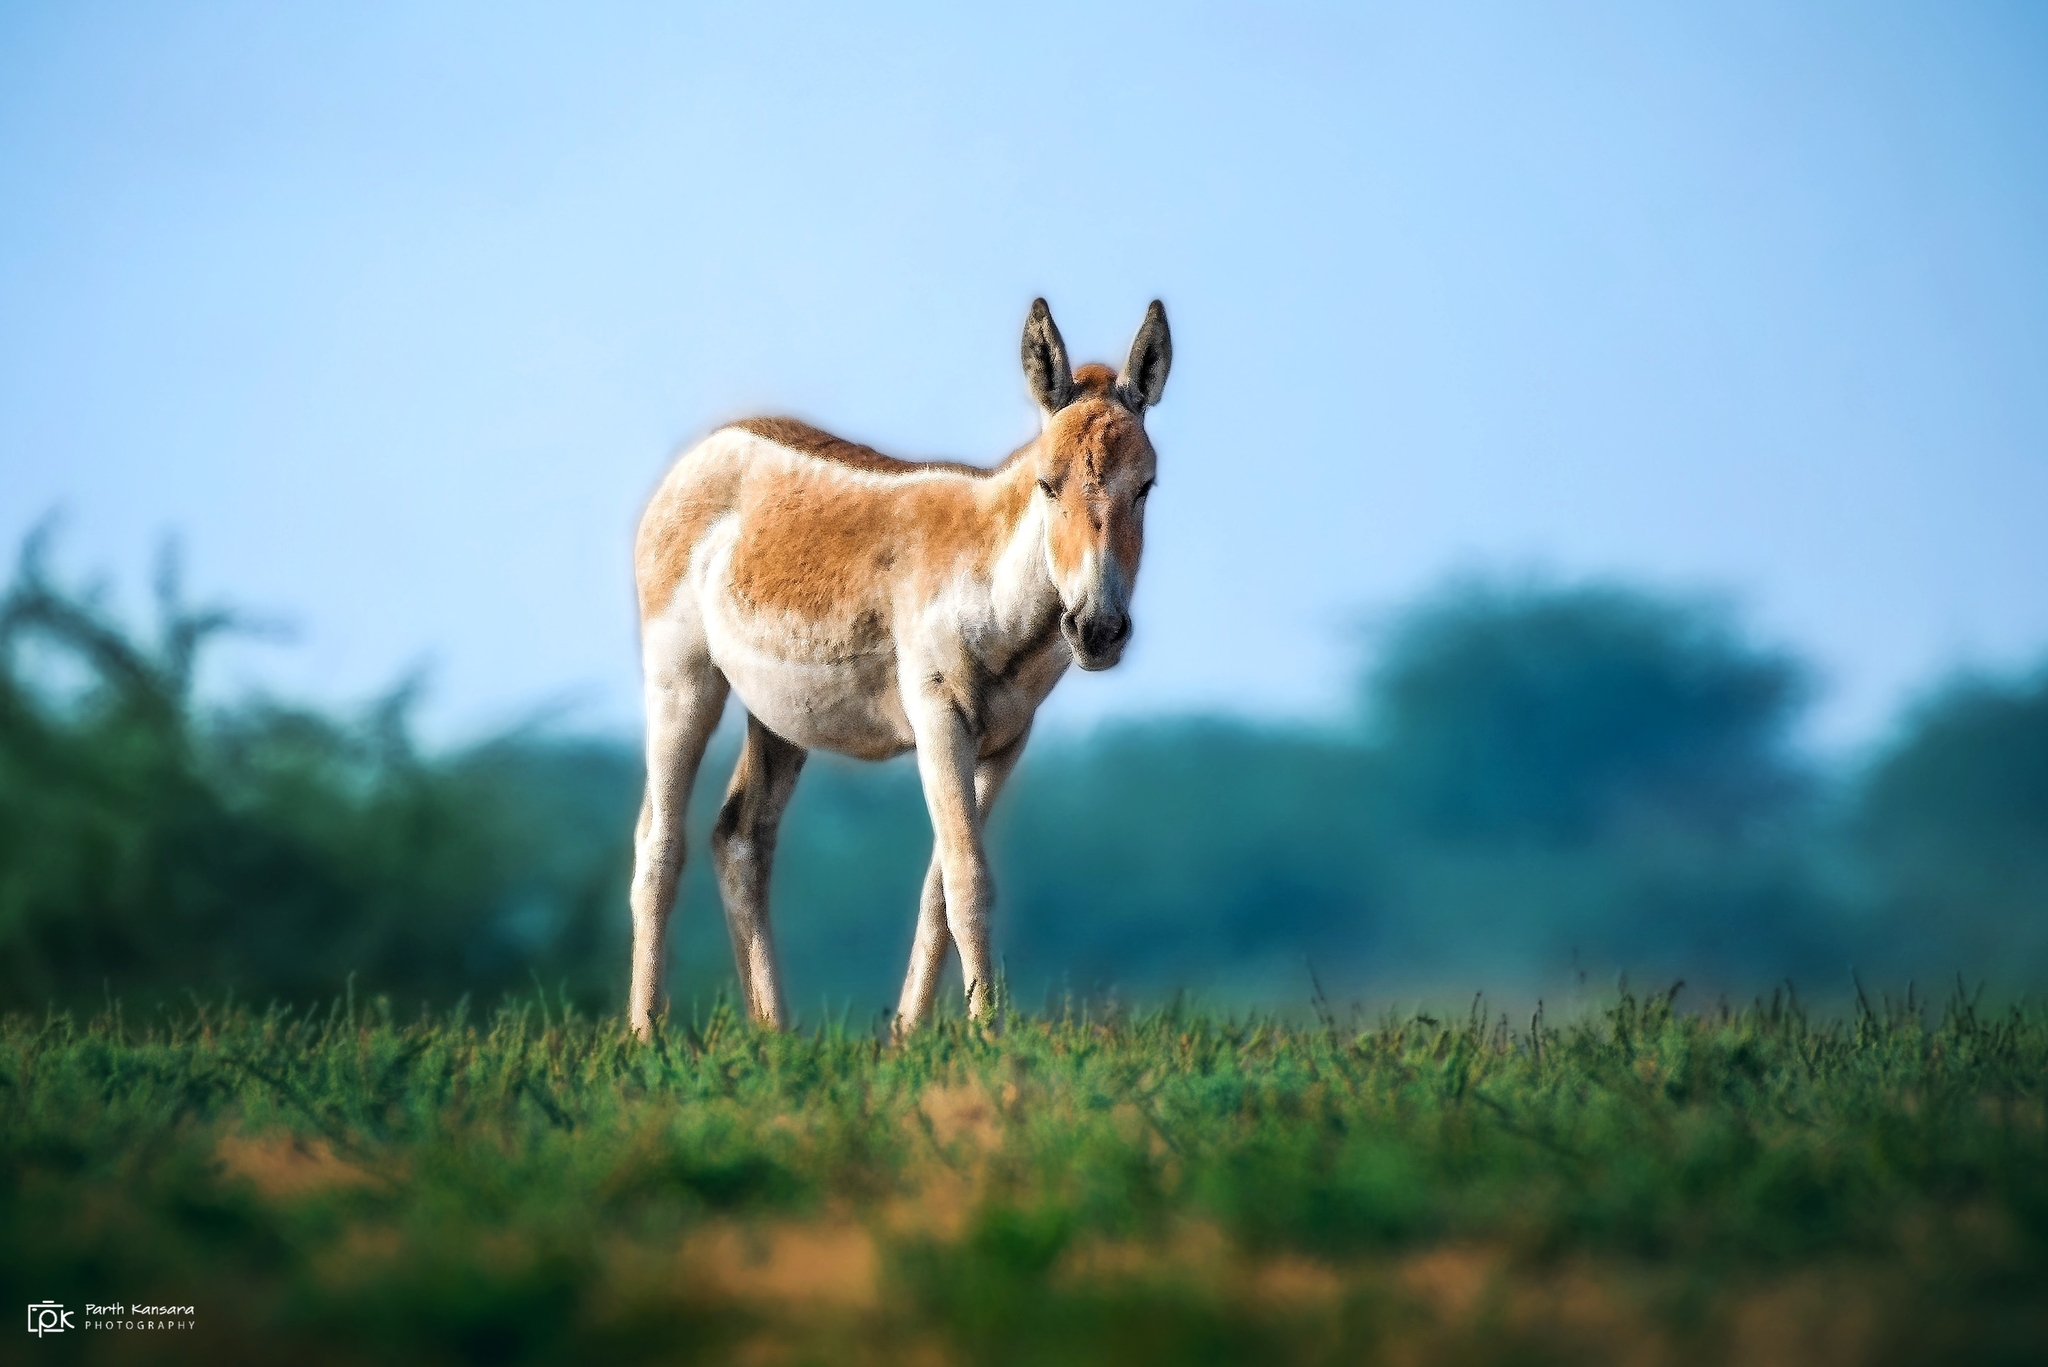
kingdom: Animalia
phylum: Chordata
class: Mammalia
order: Perissodactyla
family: Equidae
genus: Equus
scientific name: Equus khur
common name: Indian wild ass
